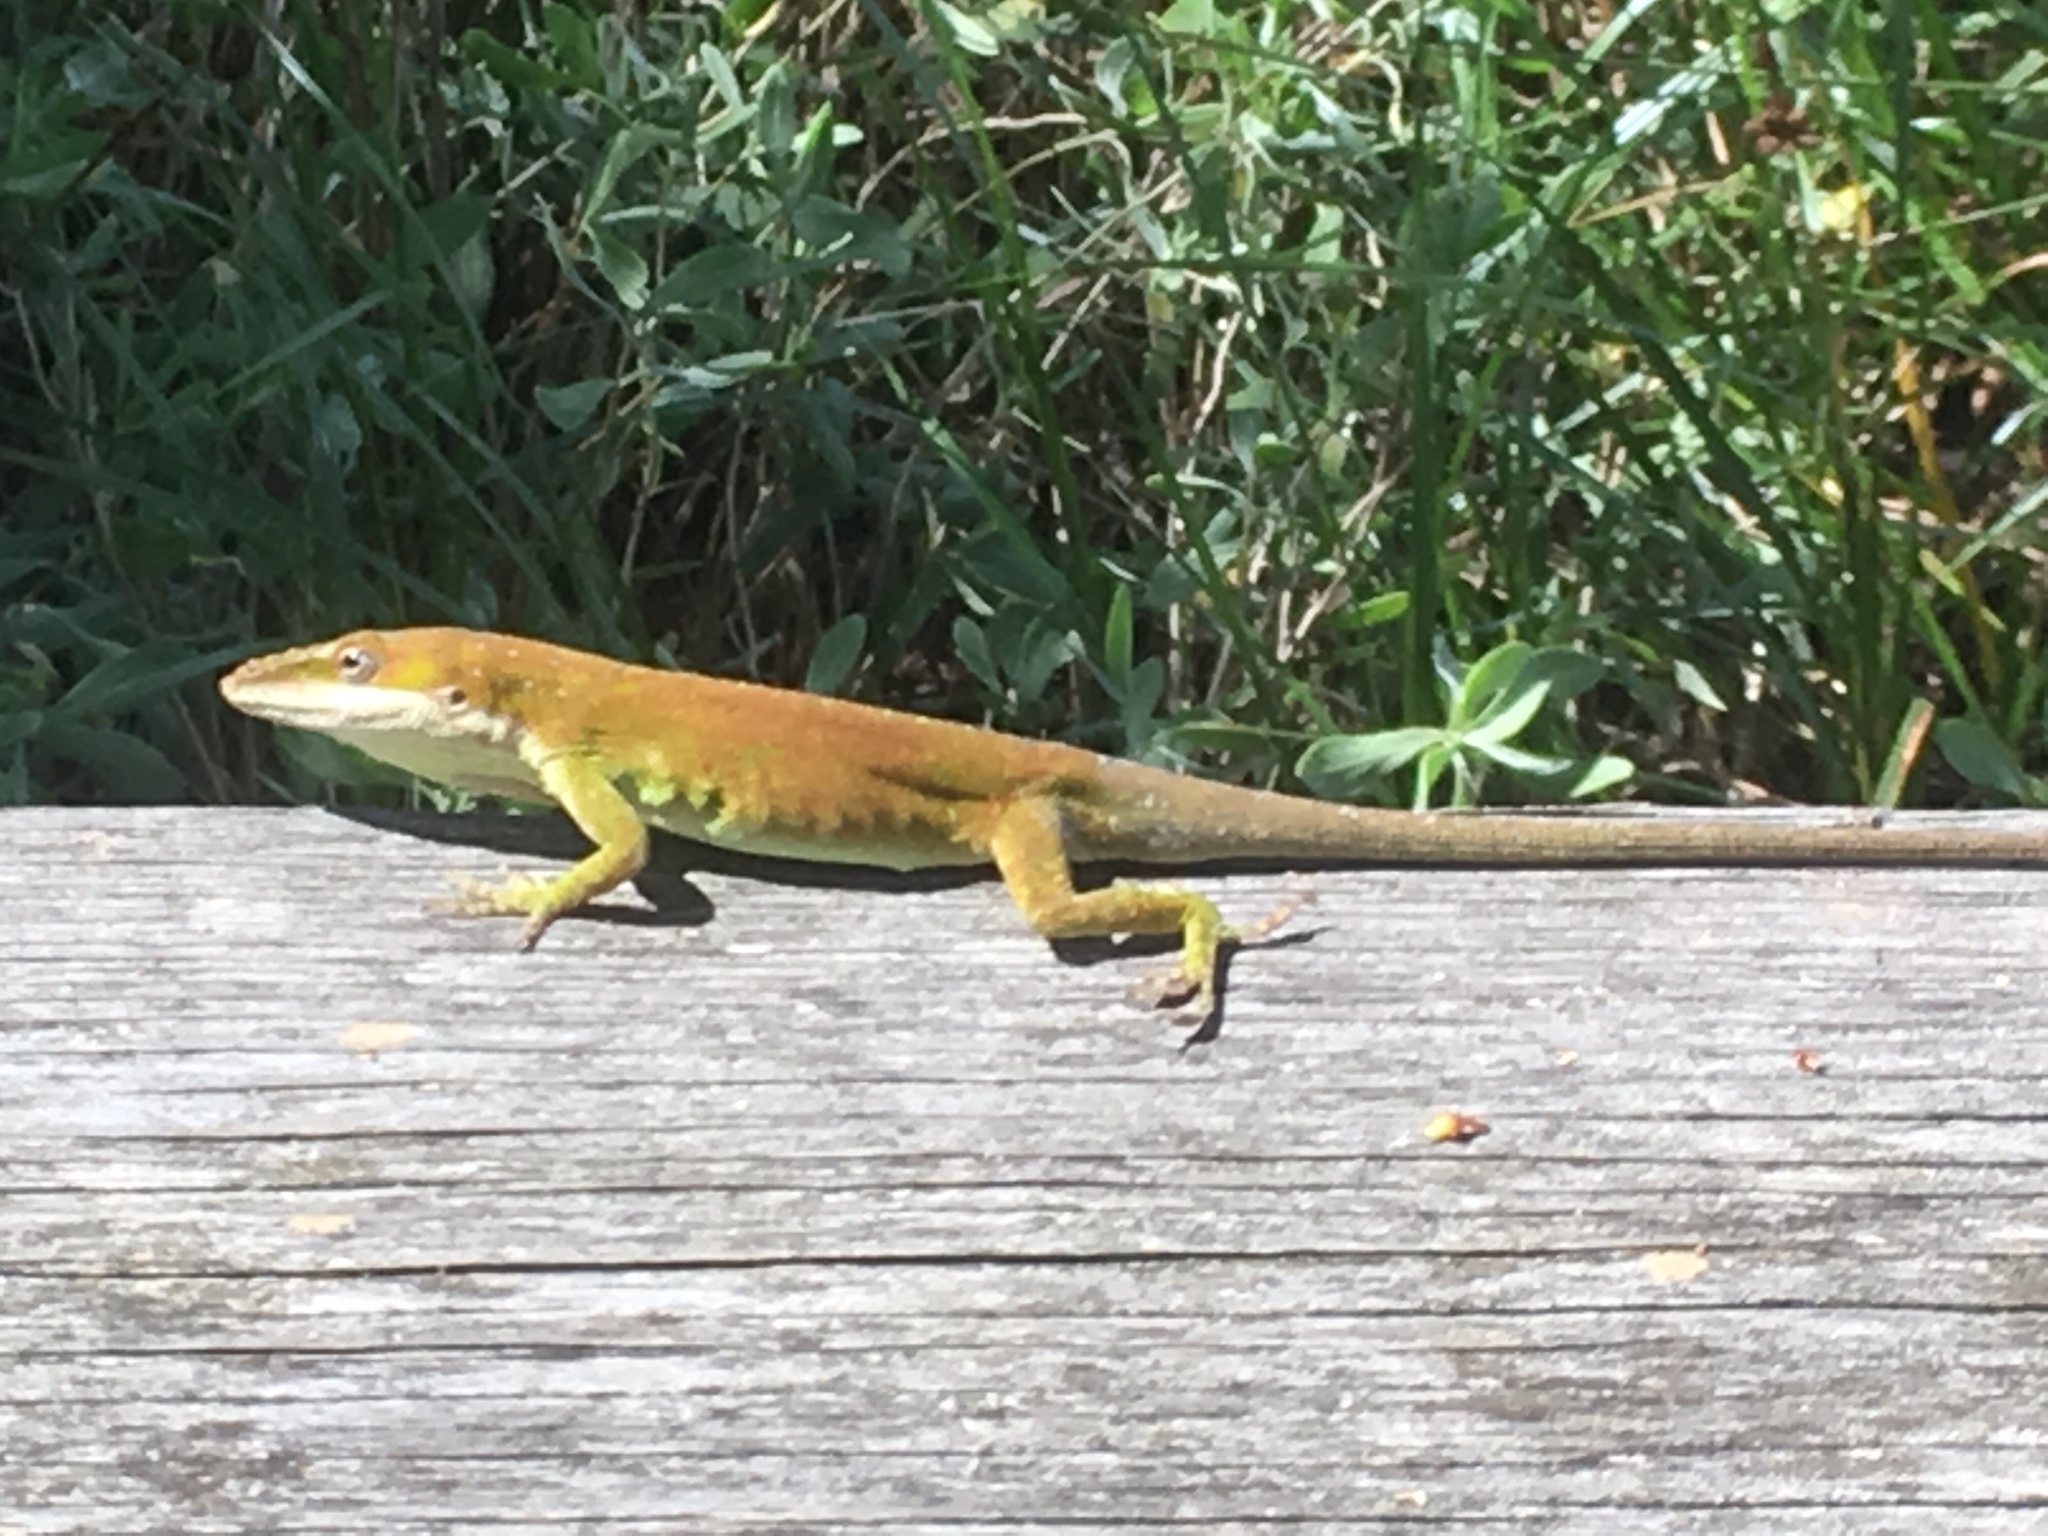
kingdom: Animalia
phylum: Chordata
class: Squamata
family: Dactyloidae
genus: Anolis
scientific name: Anolis carolinensis
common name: Green anole
